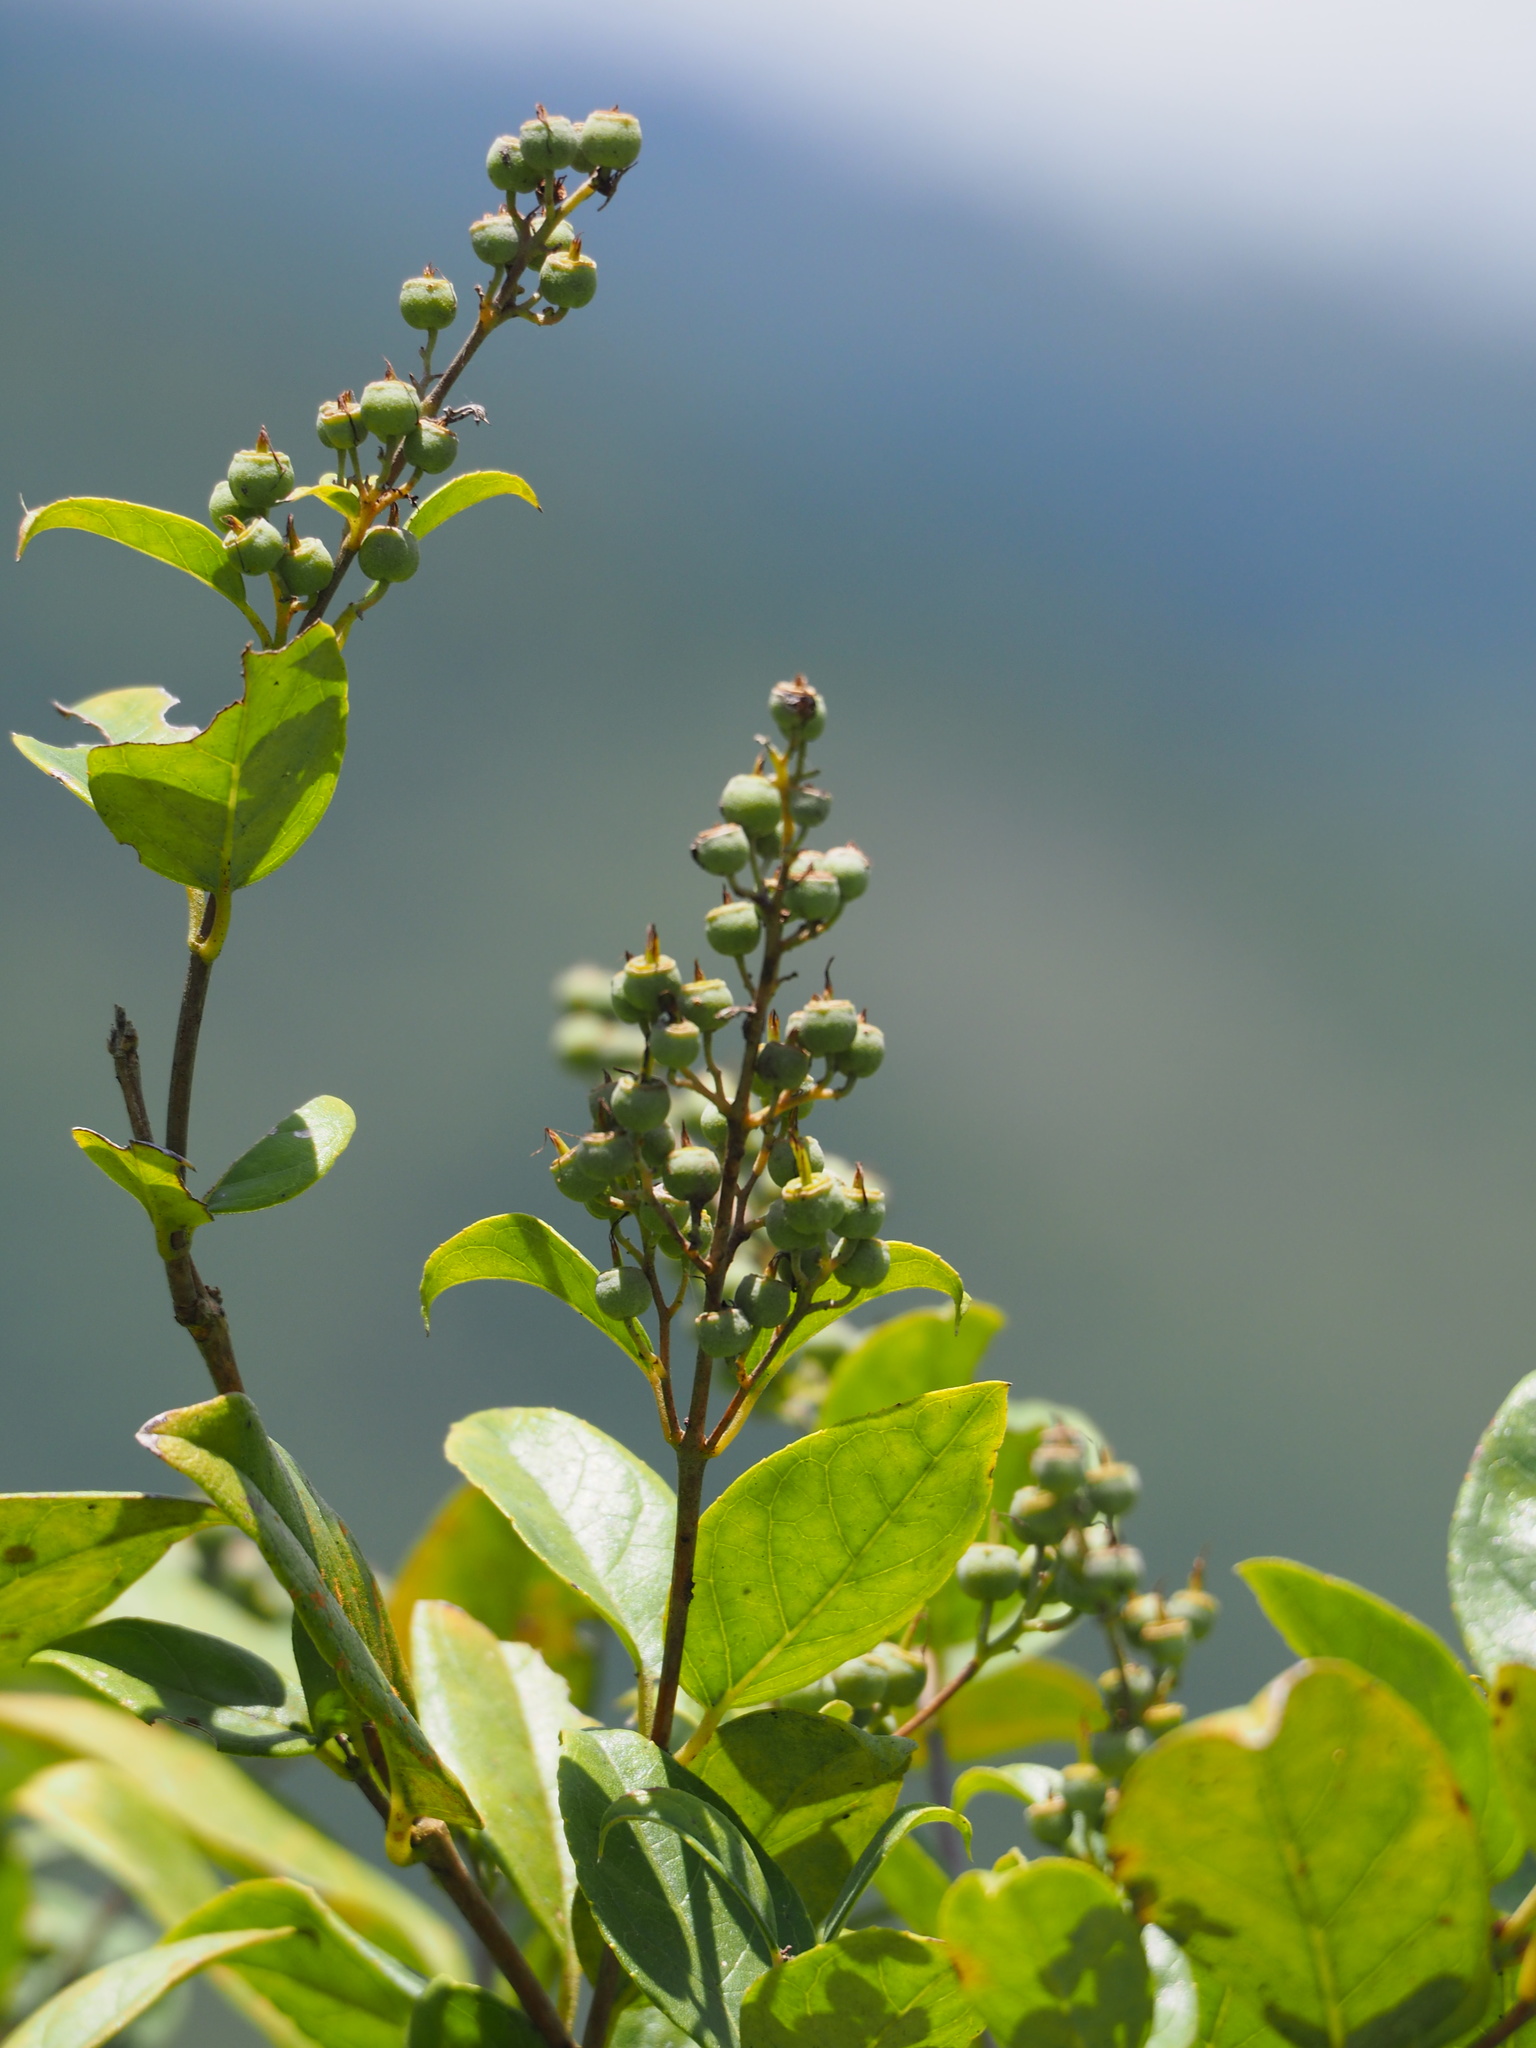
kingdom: Plantae
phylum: Tracheophyta
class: Magnoliopsida
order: Cornales
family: Hydrangeaceae
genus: Deutzia
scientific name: Deutzia pulchra
